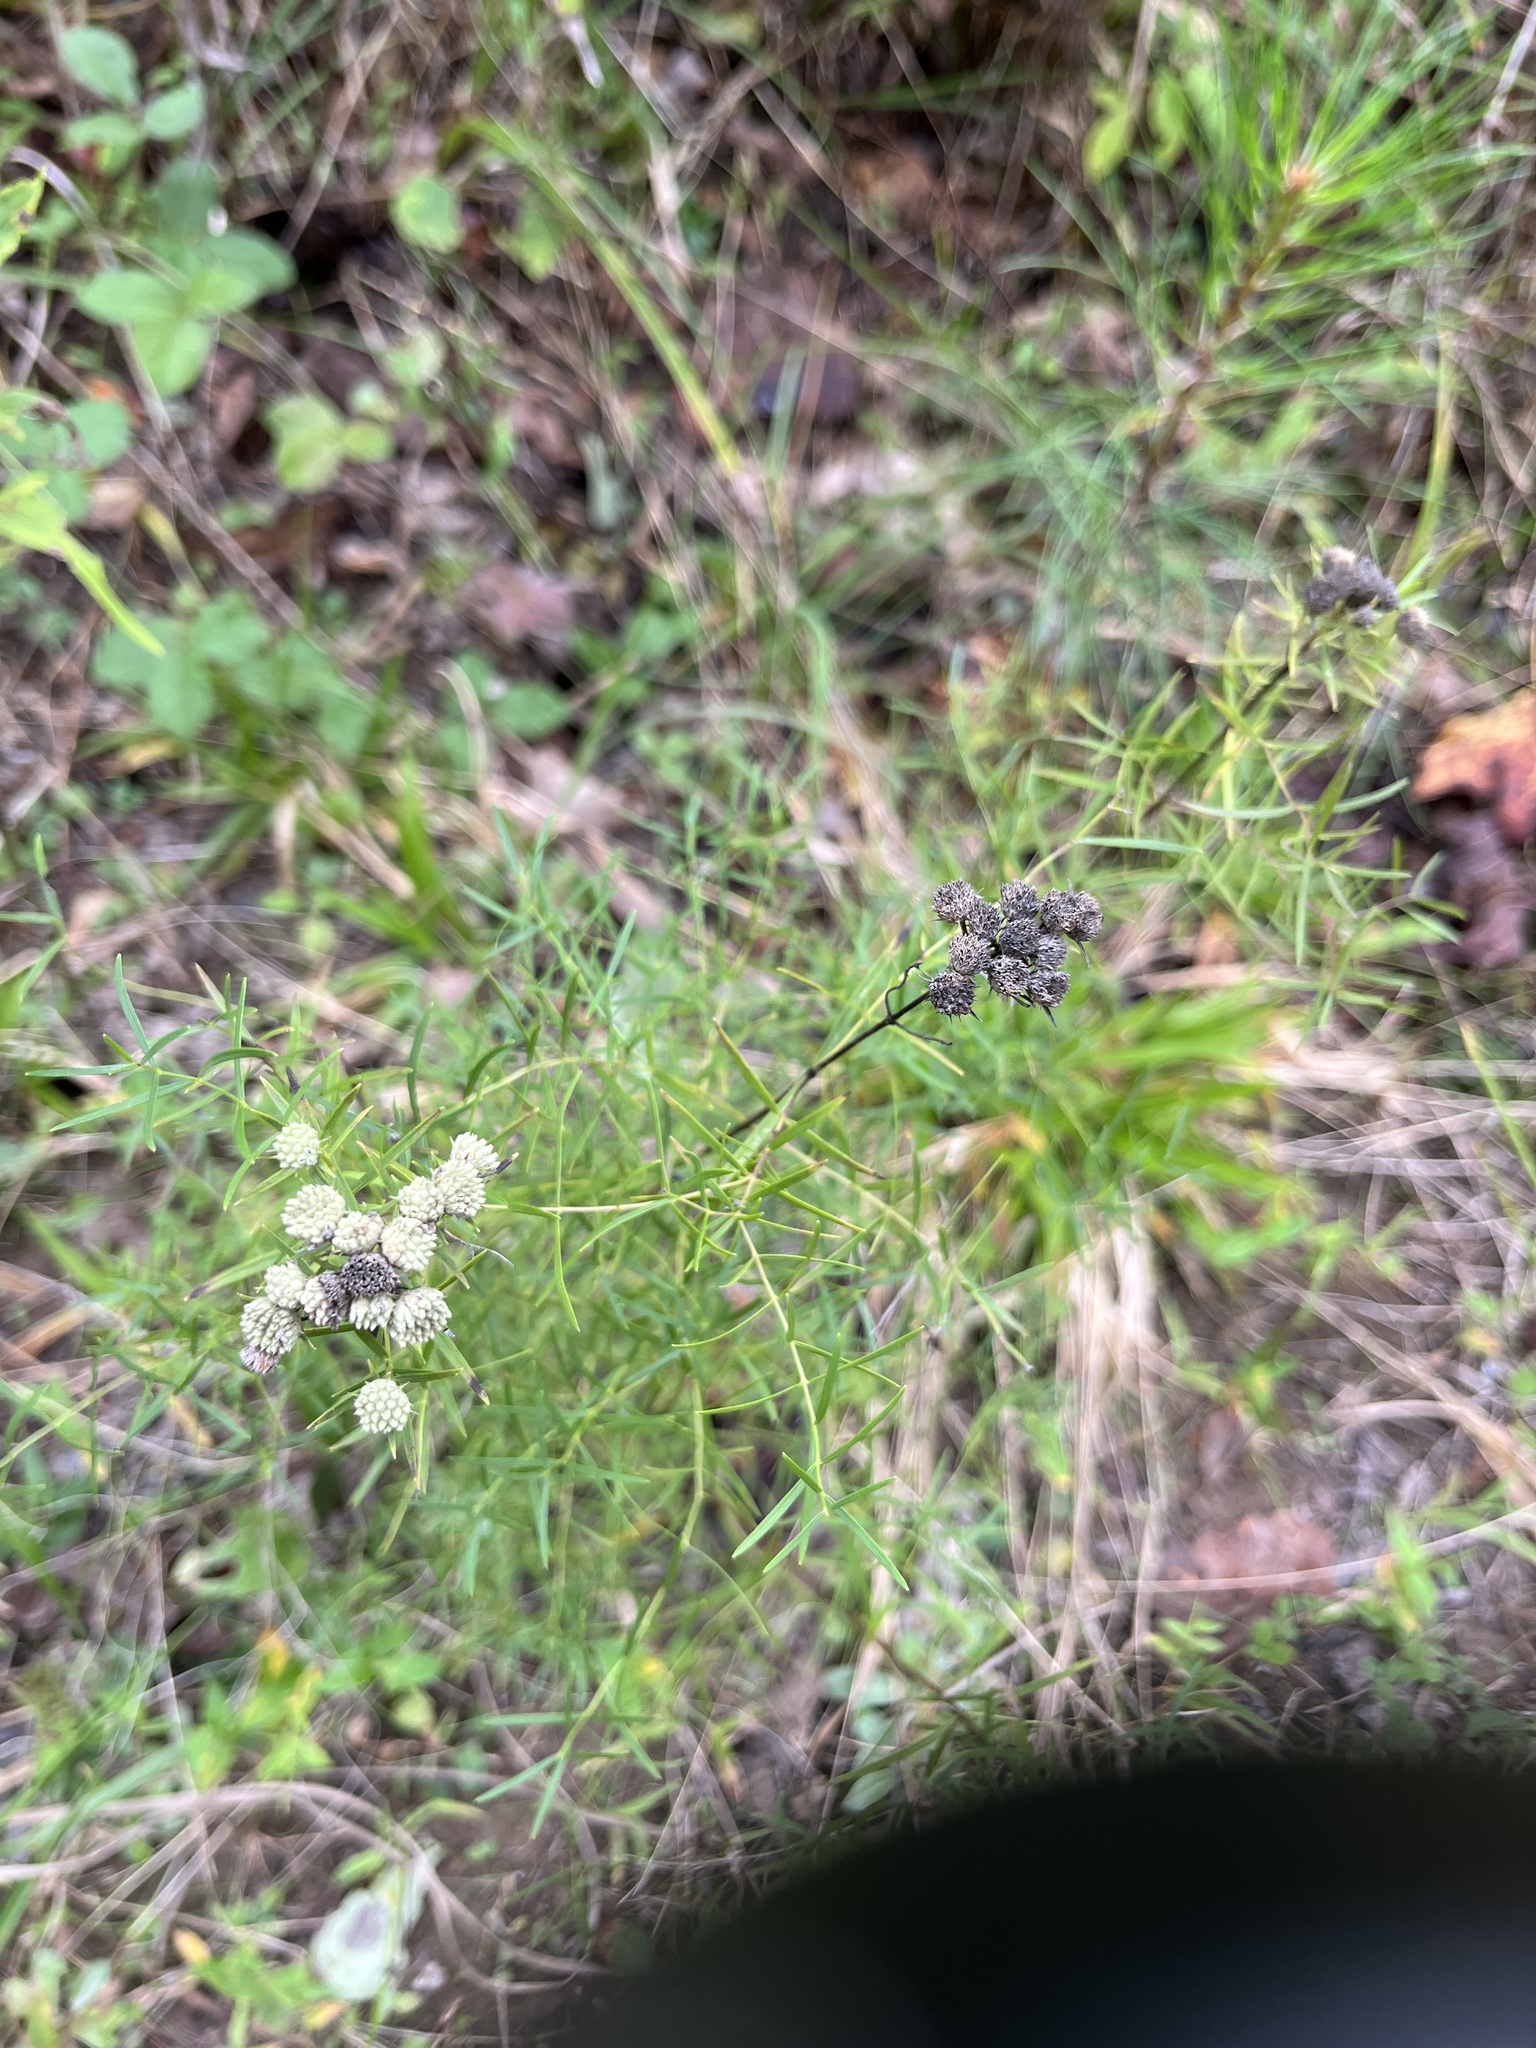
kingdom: Plantae
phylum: Tracheophyta
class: Magnoliopsida
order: Lamiales
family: Lamiaceae
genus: Pycnanthemum
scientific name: Pycnanthemum tenuifolium
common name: Narrow-leaf mountain-mint
